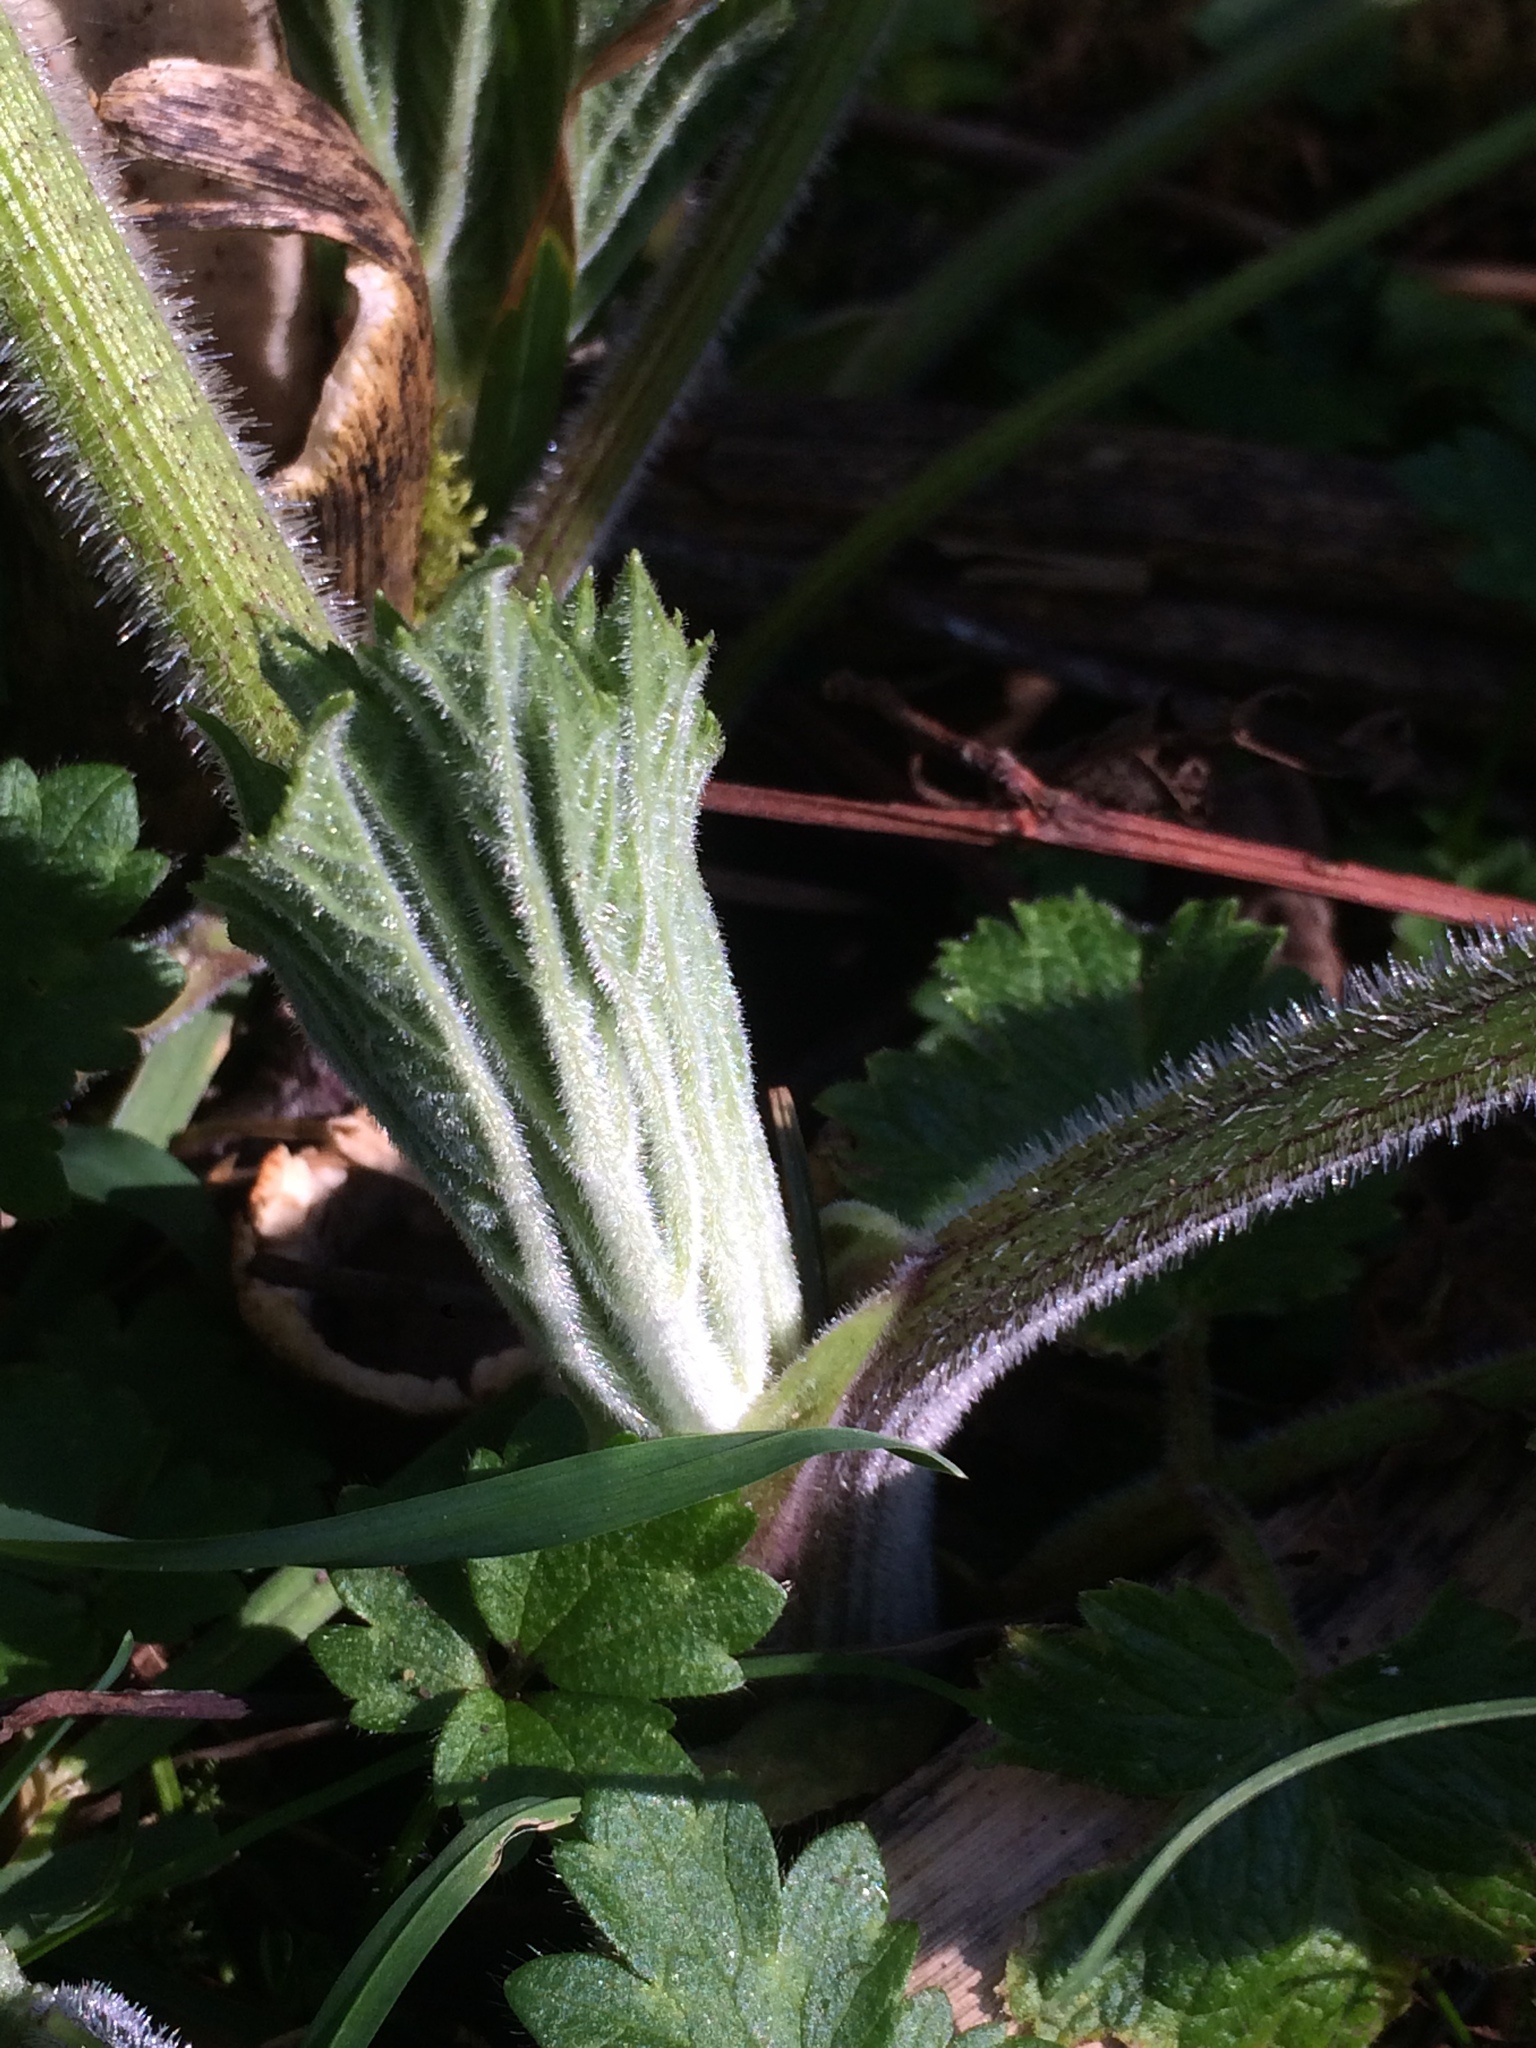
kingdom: Plantae
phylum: Tracheophyta
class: Magnoliopsida
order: Apiales
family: Apiaceae
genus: Heracleum
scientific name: Heracleum maximum
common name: American cow parsnip
